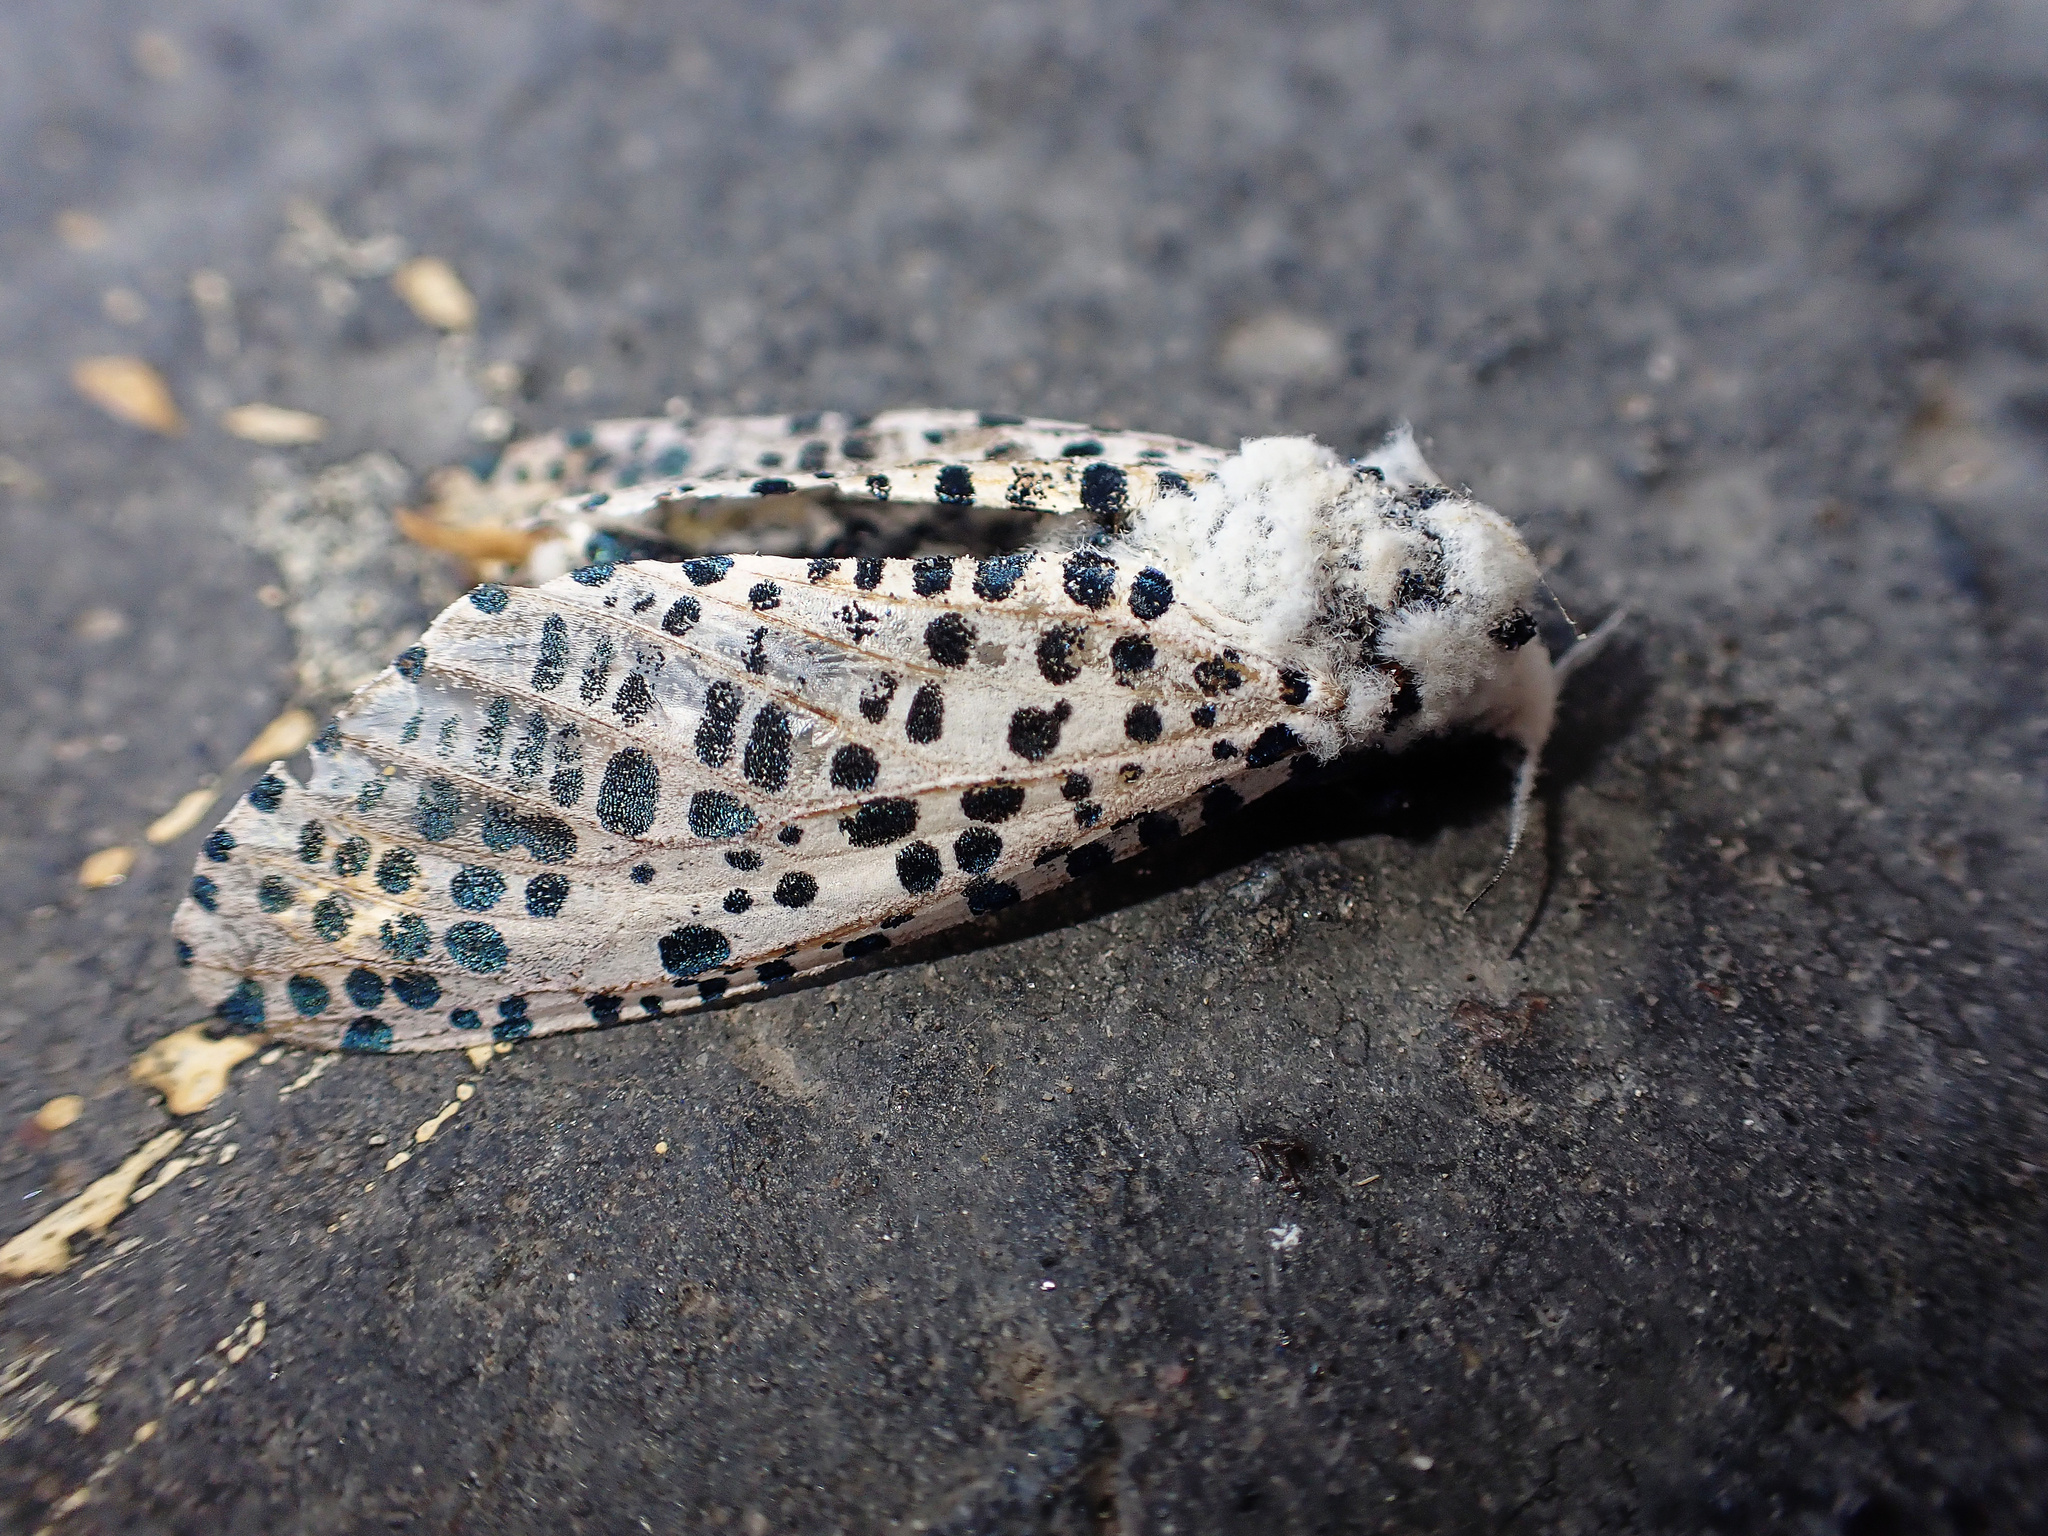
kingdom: Animalia
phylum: Arthropoda
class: Insecta
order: Lepidoptera
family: Cossidae
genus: Zeuzera
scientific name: Zeuzera pyrina
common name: Leopard moth
